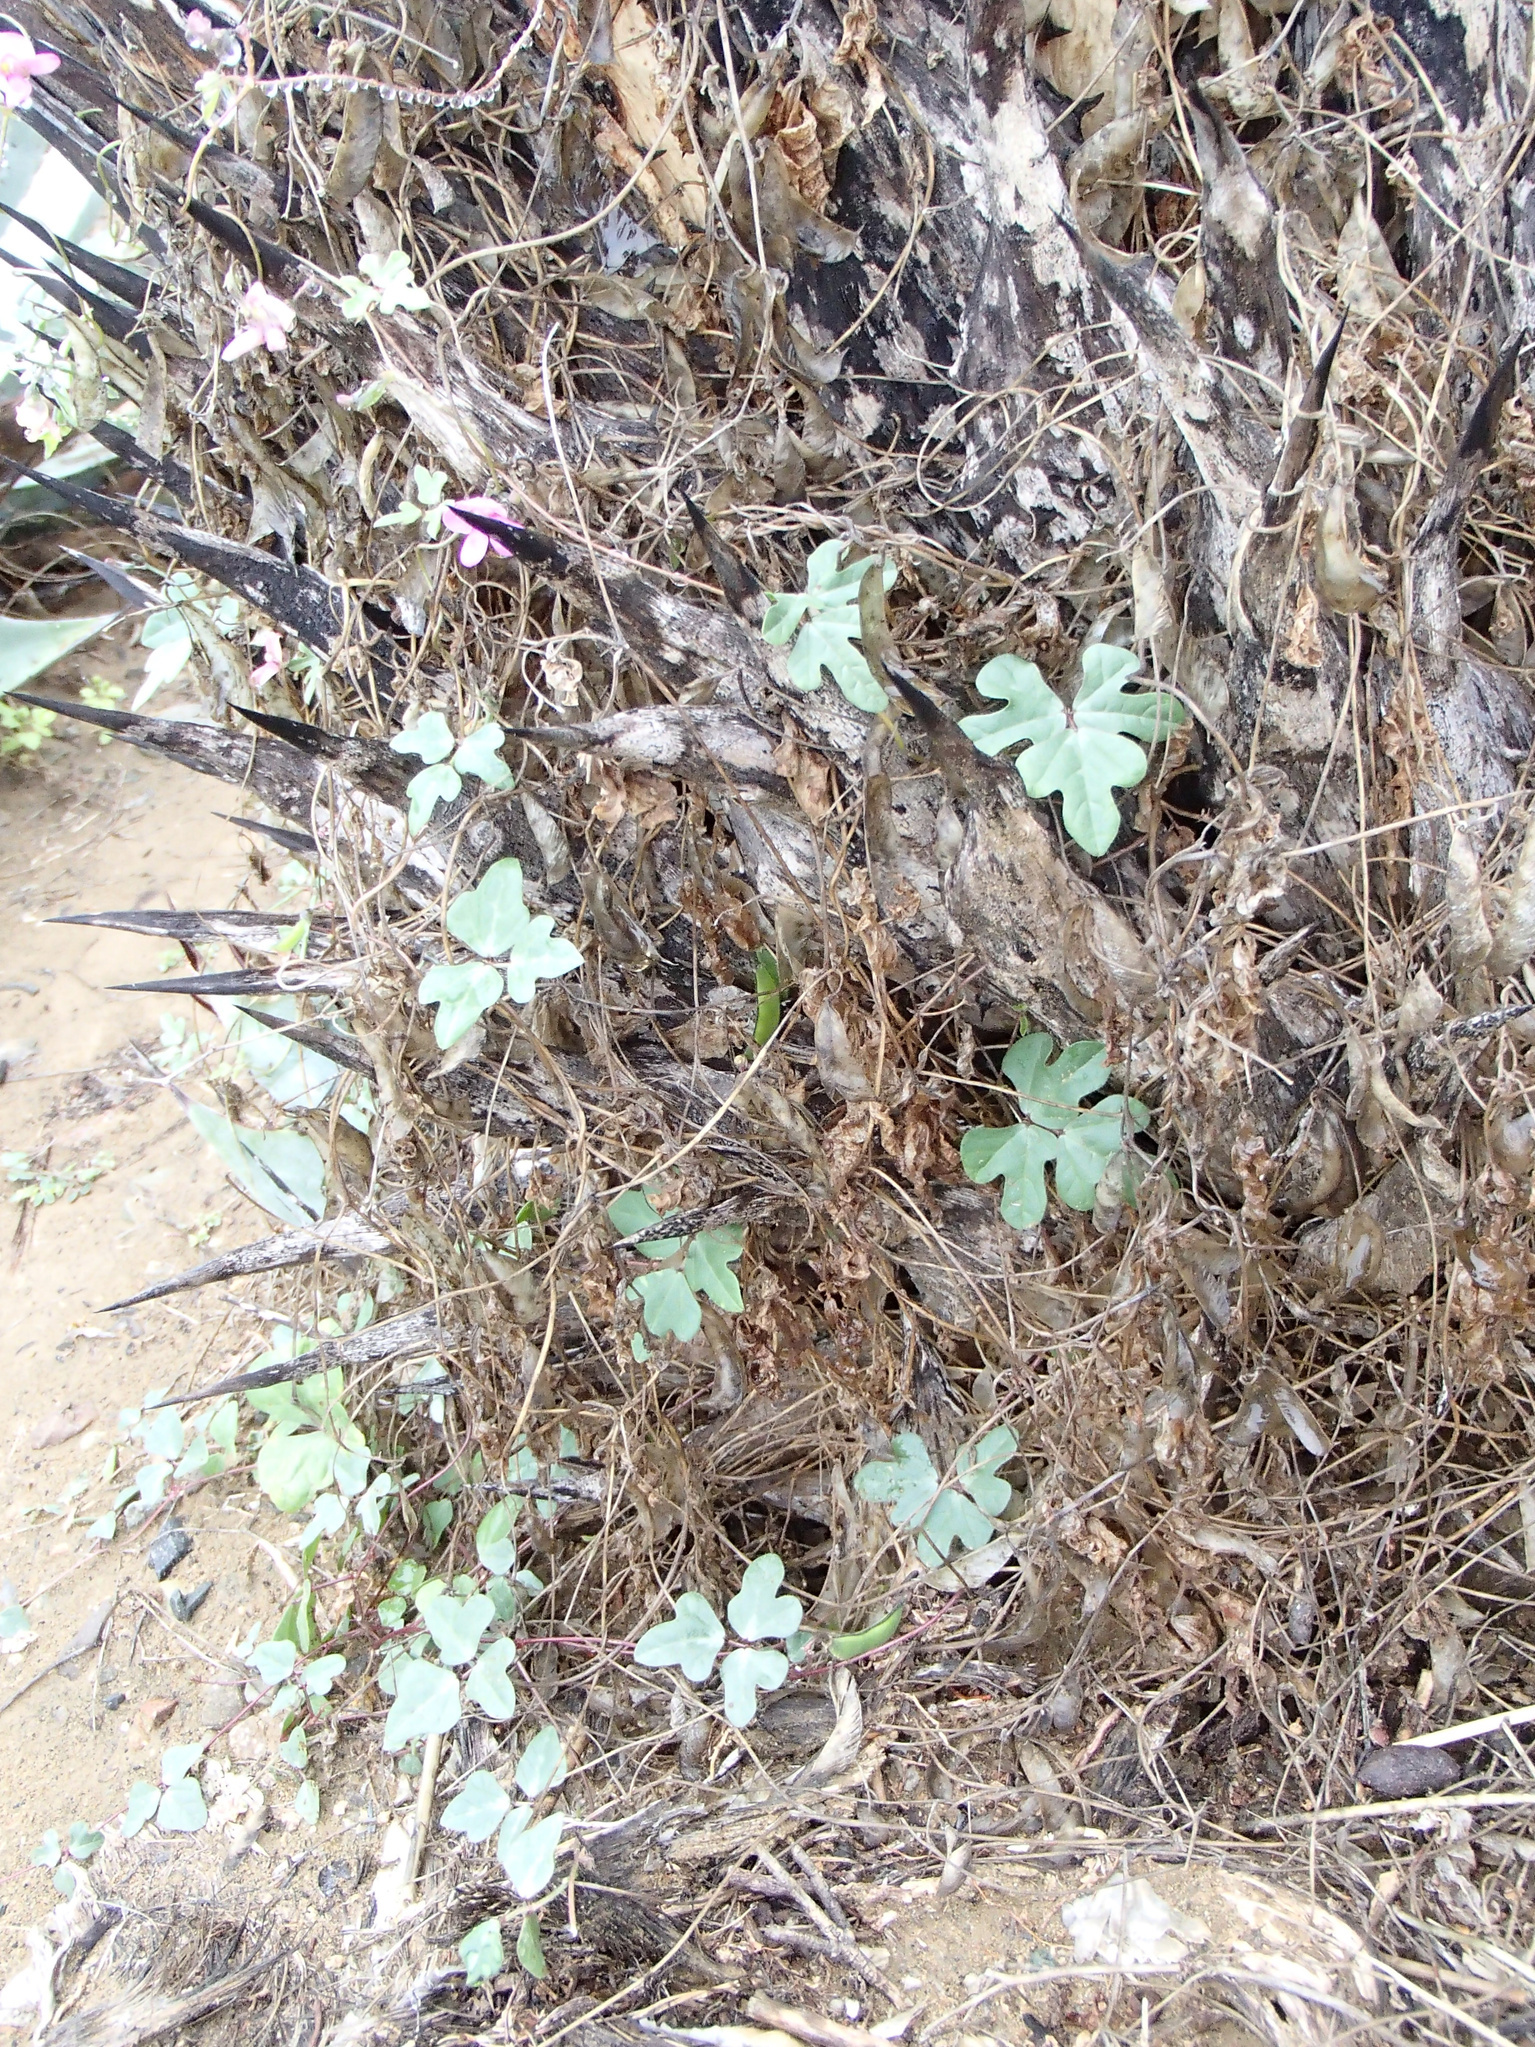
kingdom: Plantae
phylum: Tracheophyta
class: Magnoliopsida
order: Fabales
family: Fabaceae
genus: Phaseolus
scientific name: Phaseolus filiformis
